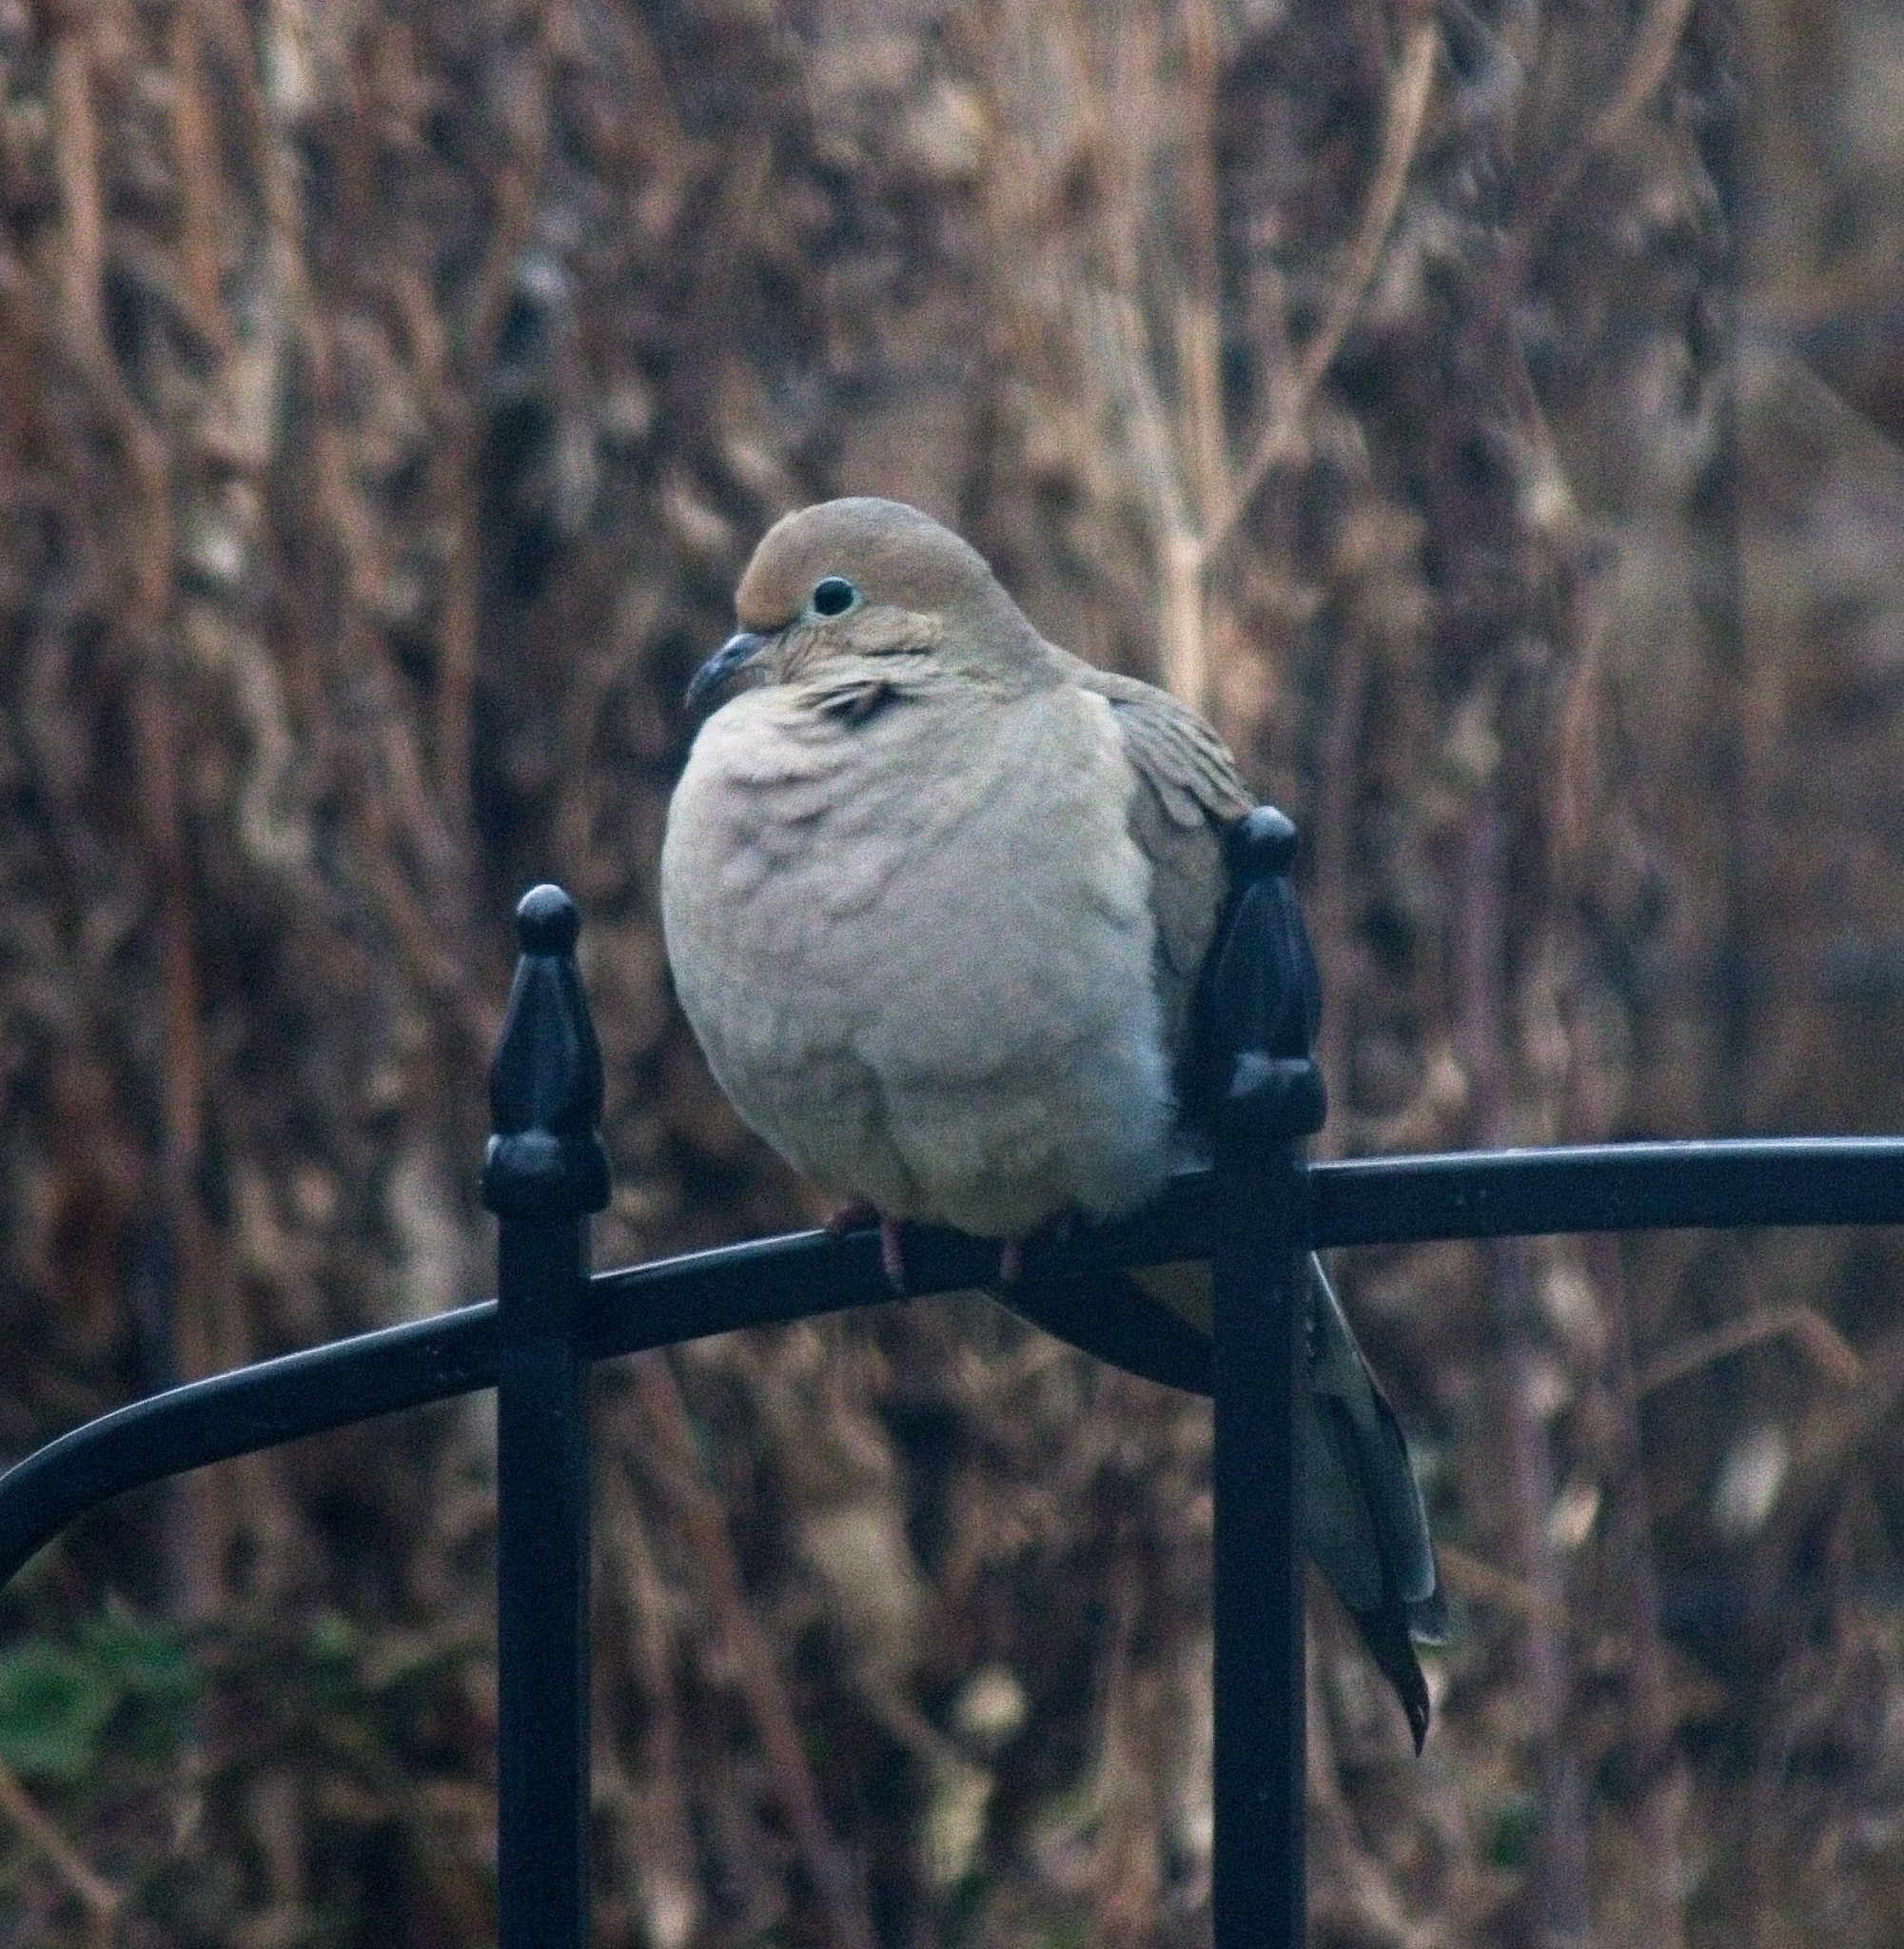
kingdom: Animalia
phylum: Chordata
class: Aves
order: Columbiformes
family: Columbidae
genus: Zenaida
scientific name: Zenaida macroura
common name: Mourning dove
